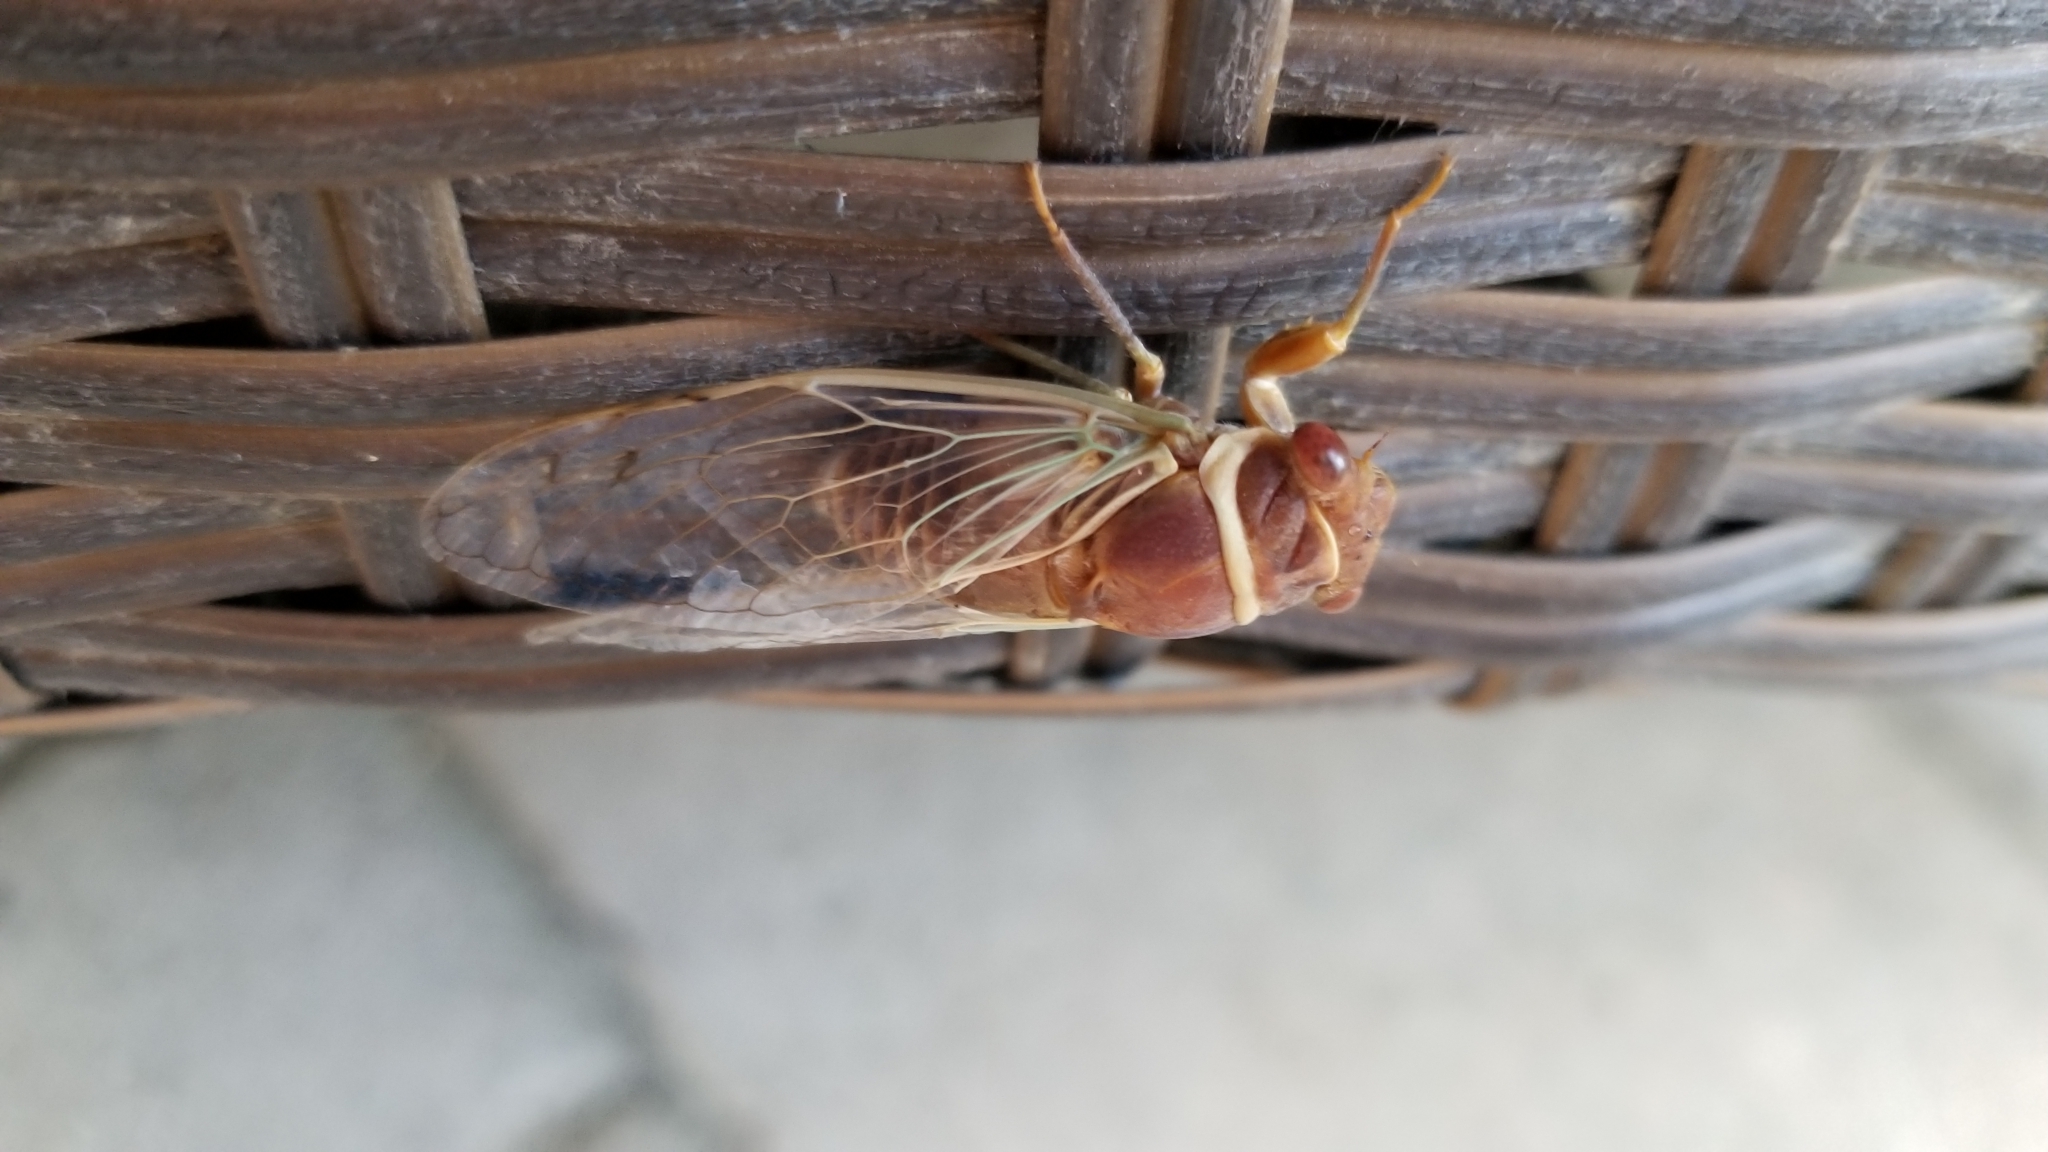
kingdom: Animalia
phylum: Arthropoda
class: Insecta
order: Hemiptera
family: Cicadidae
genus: Diceroprocta
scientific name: Diceroprocta apache
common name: Desert cicada
